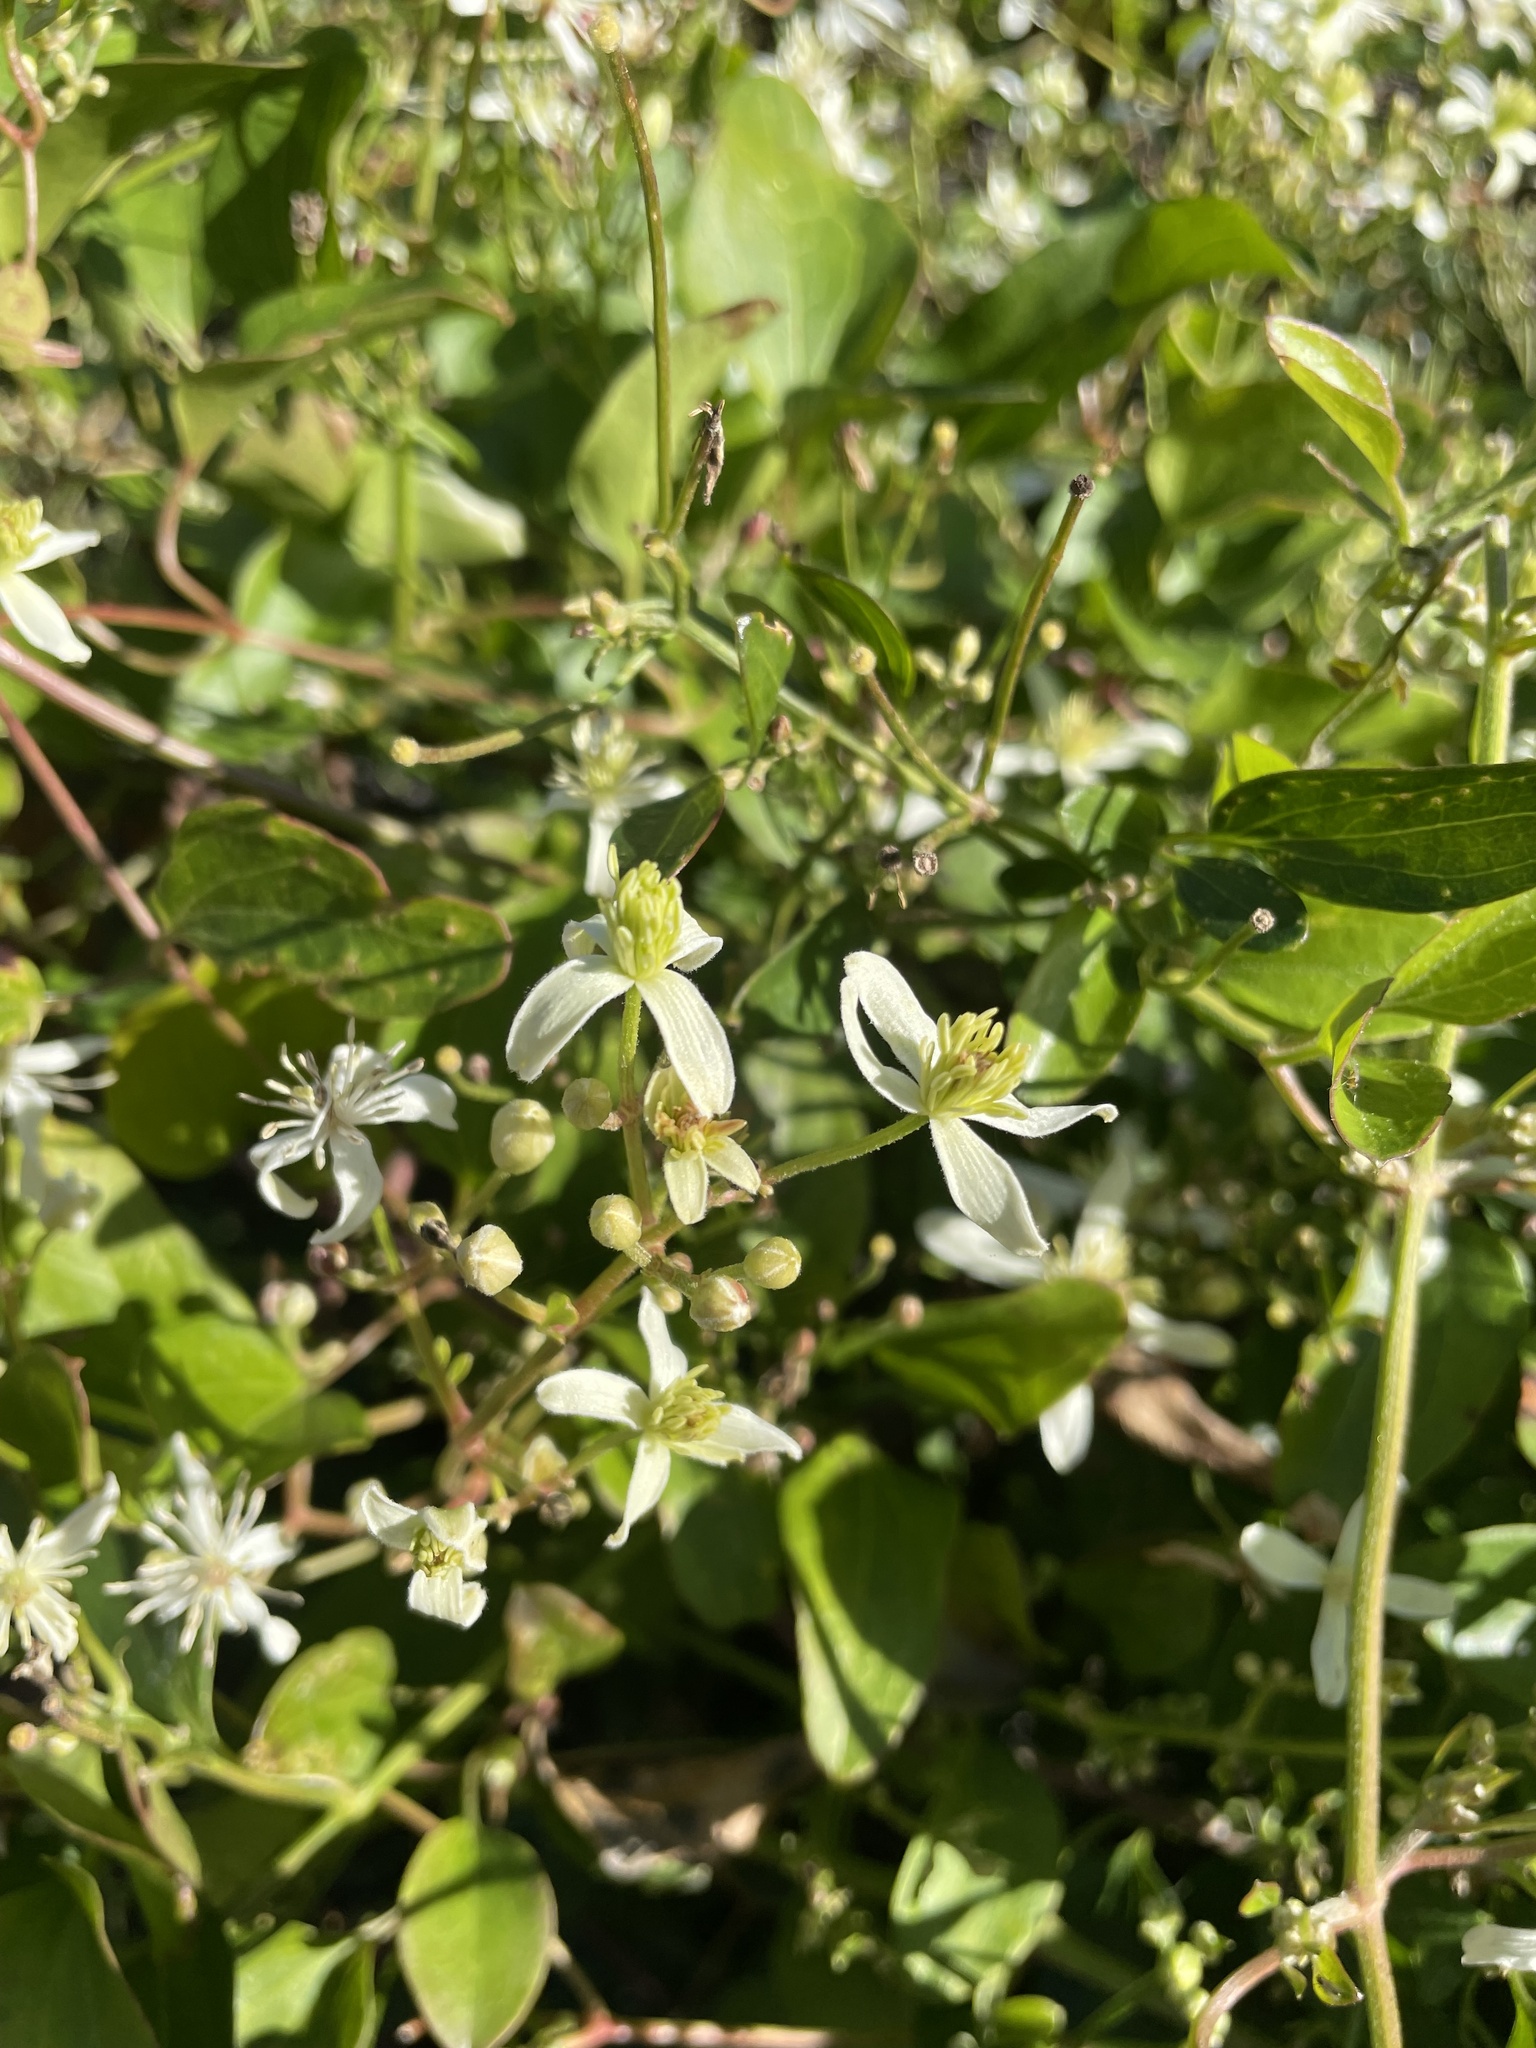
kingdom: Plantae
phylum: Tracheophyta
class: Magnoliopsida
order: Ranunculales
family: Ranunculaceae
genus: Clematis
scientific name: Clematis terniflora
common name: Sweet autumn clematis
